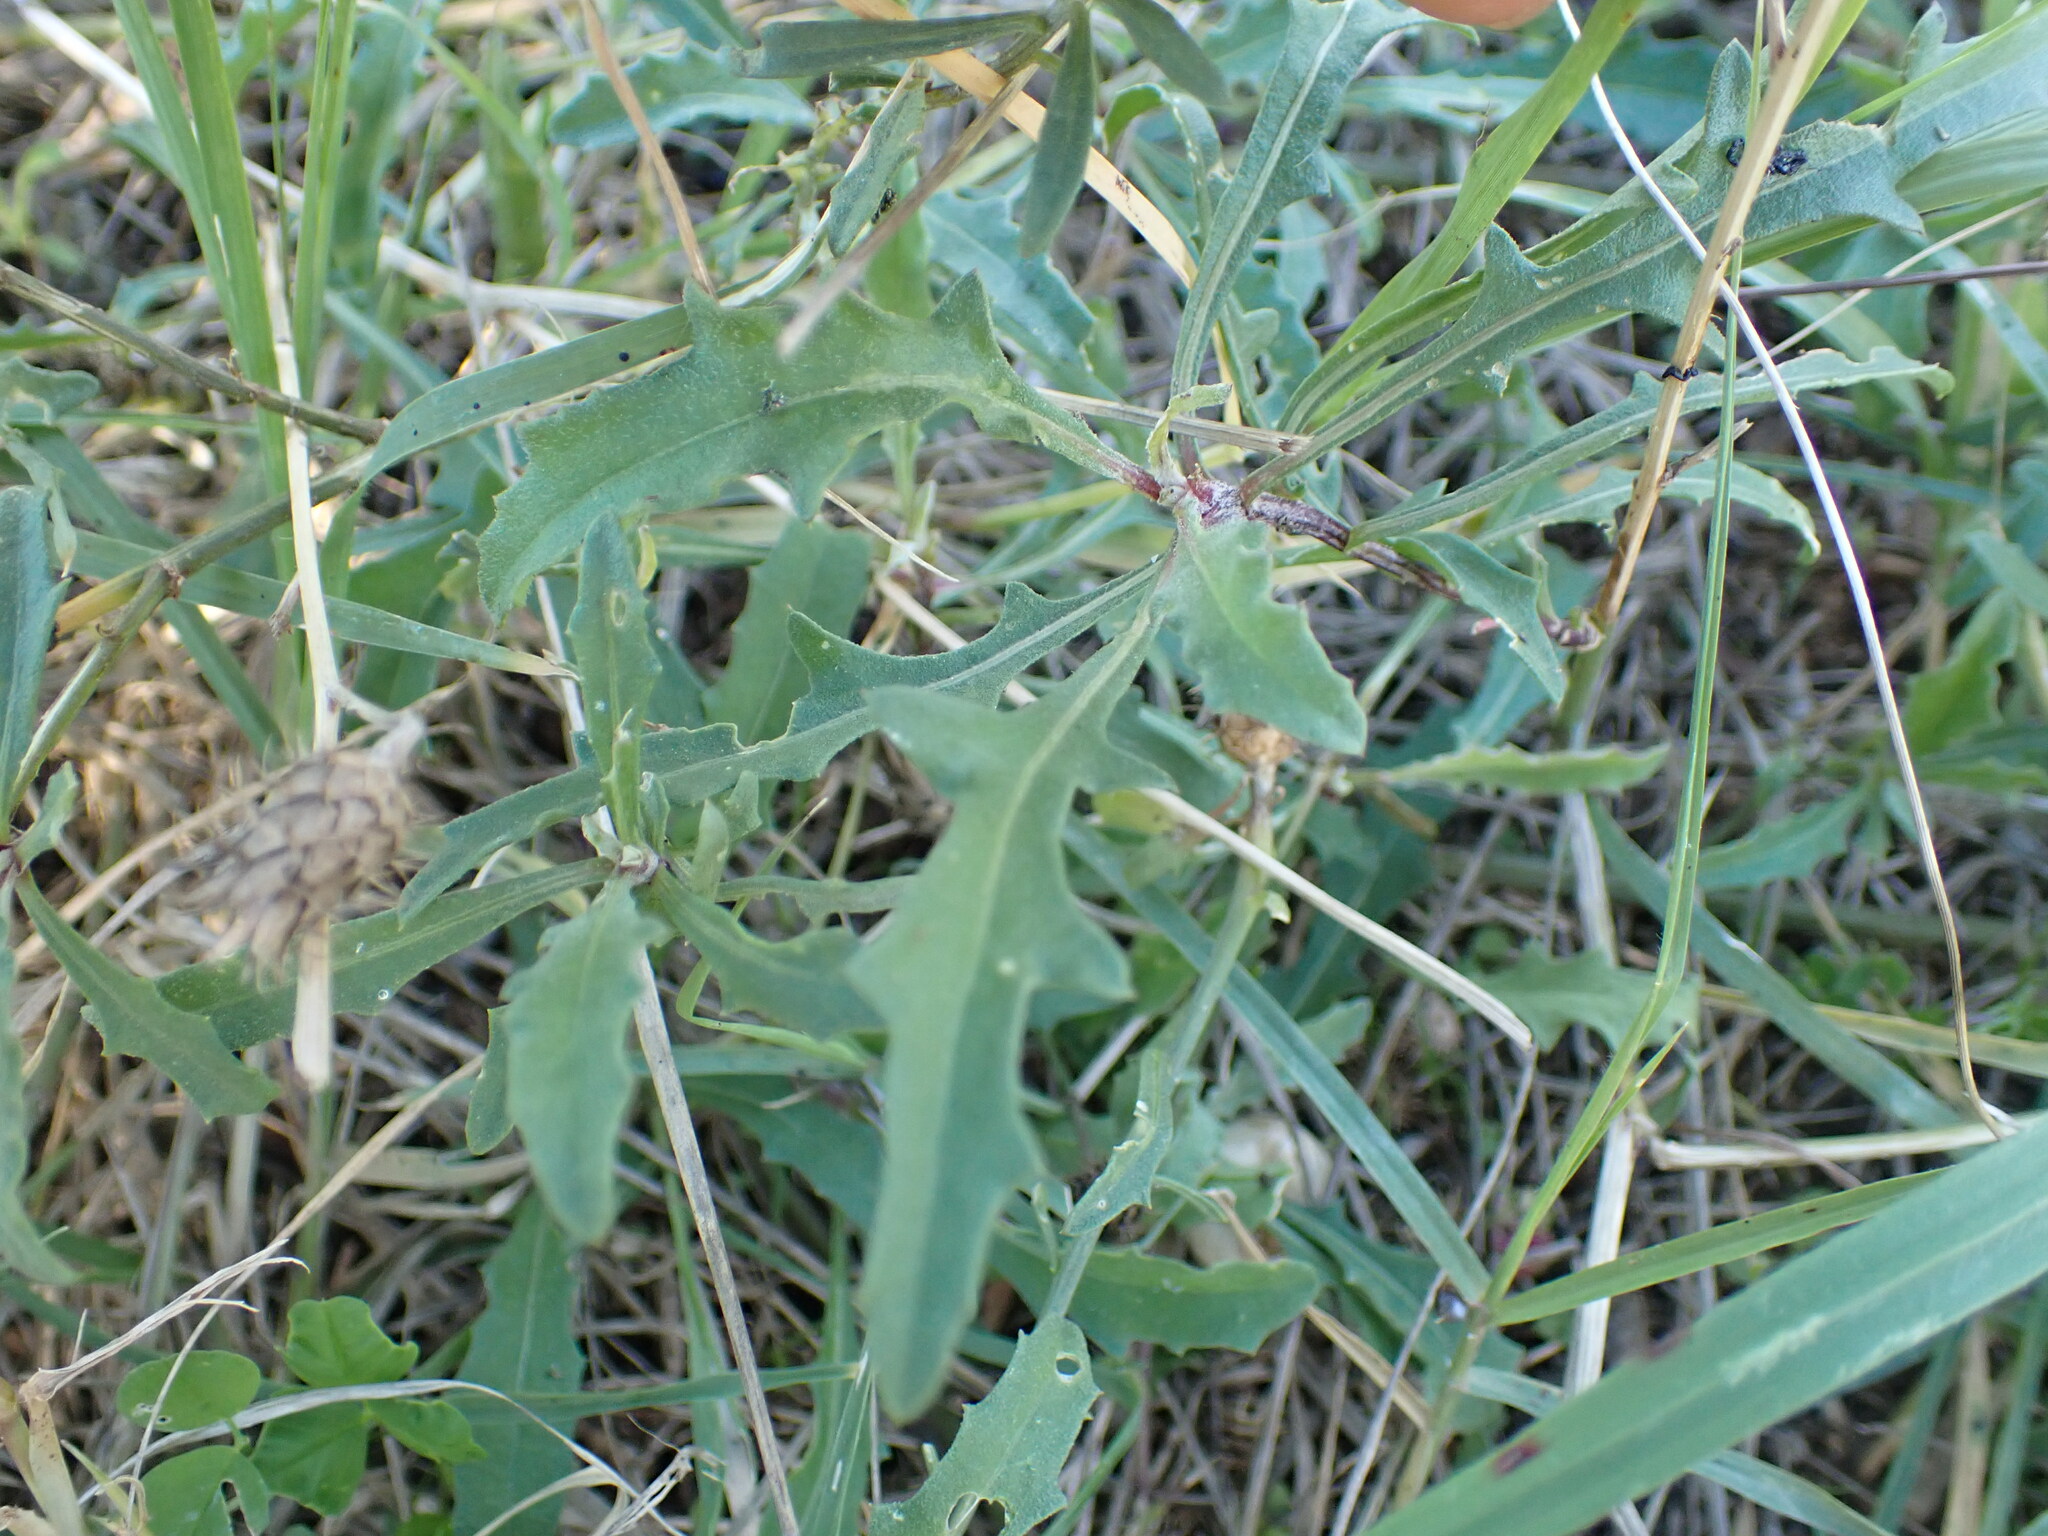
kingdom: Plantae
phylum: Tracheophyta
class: Magnoliopsida
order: Asterales
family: Asteraceae
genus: Centaurea
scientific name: Centaurea aspera
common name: Rough star-thistle
